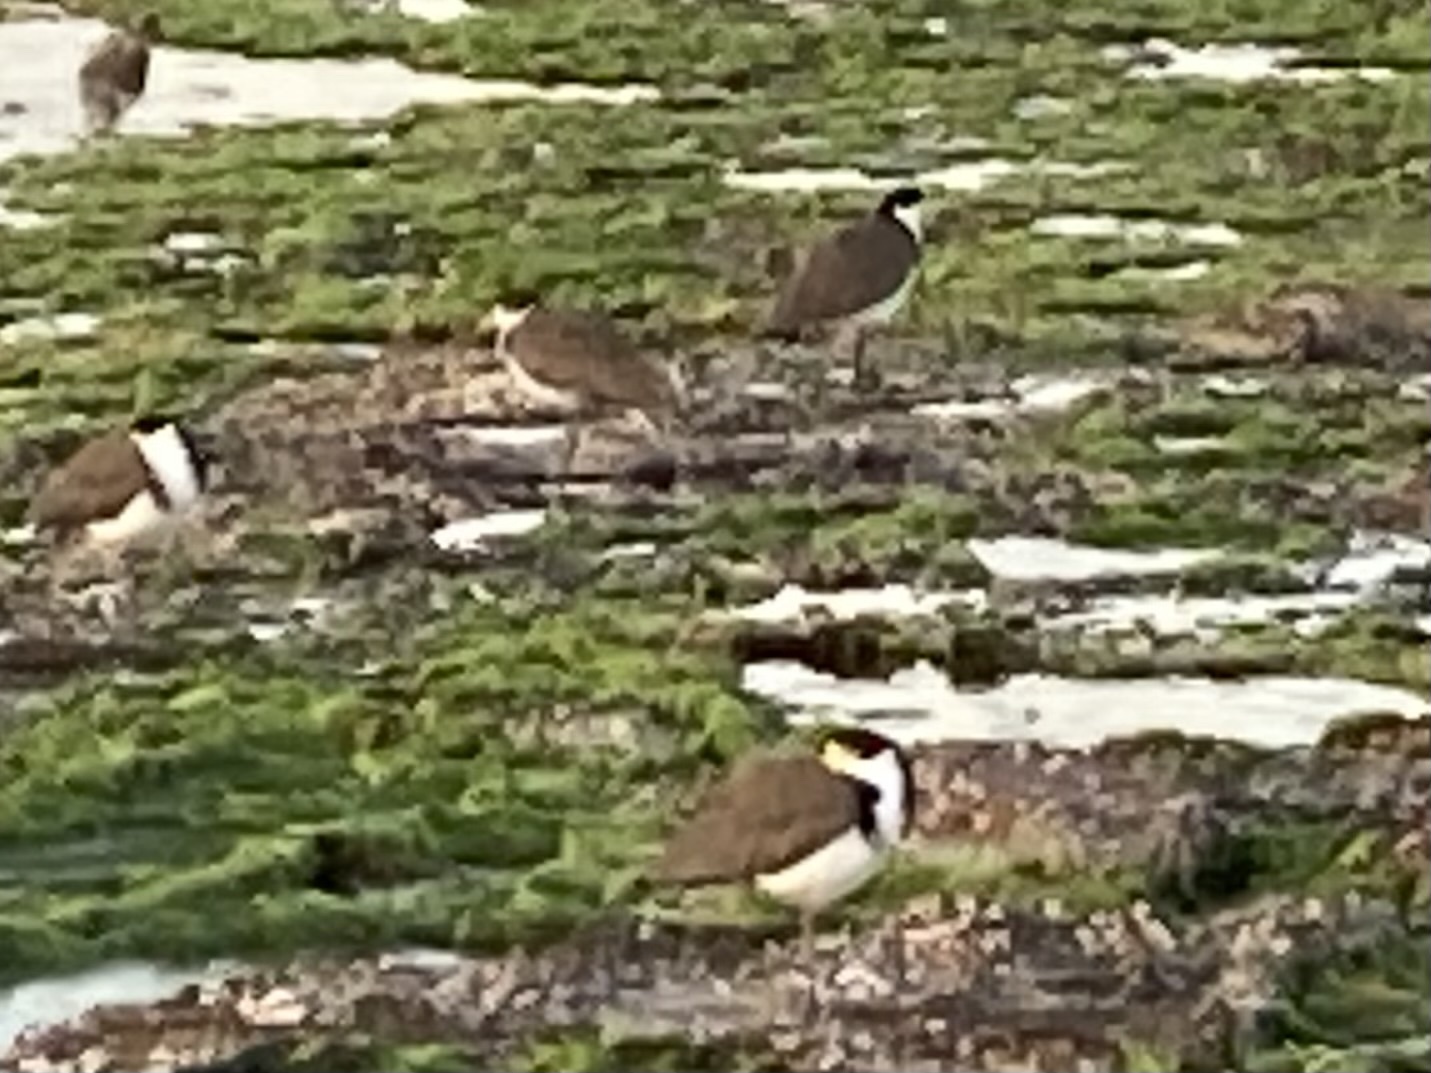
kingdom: Animalia
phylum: Chordata
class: Aves
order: Charadriiformes
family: Charadriidae
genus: Vanellus
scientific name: Vanellus miles
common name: Masked lapwing
